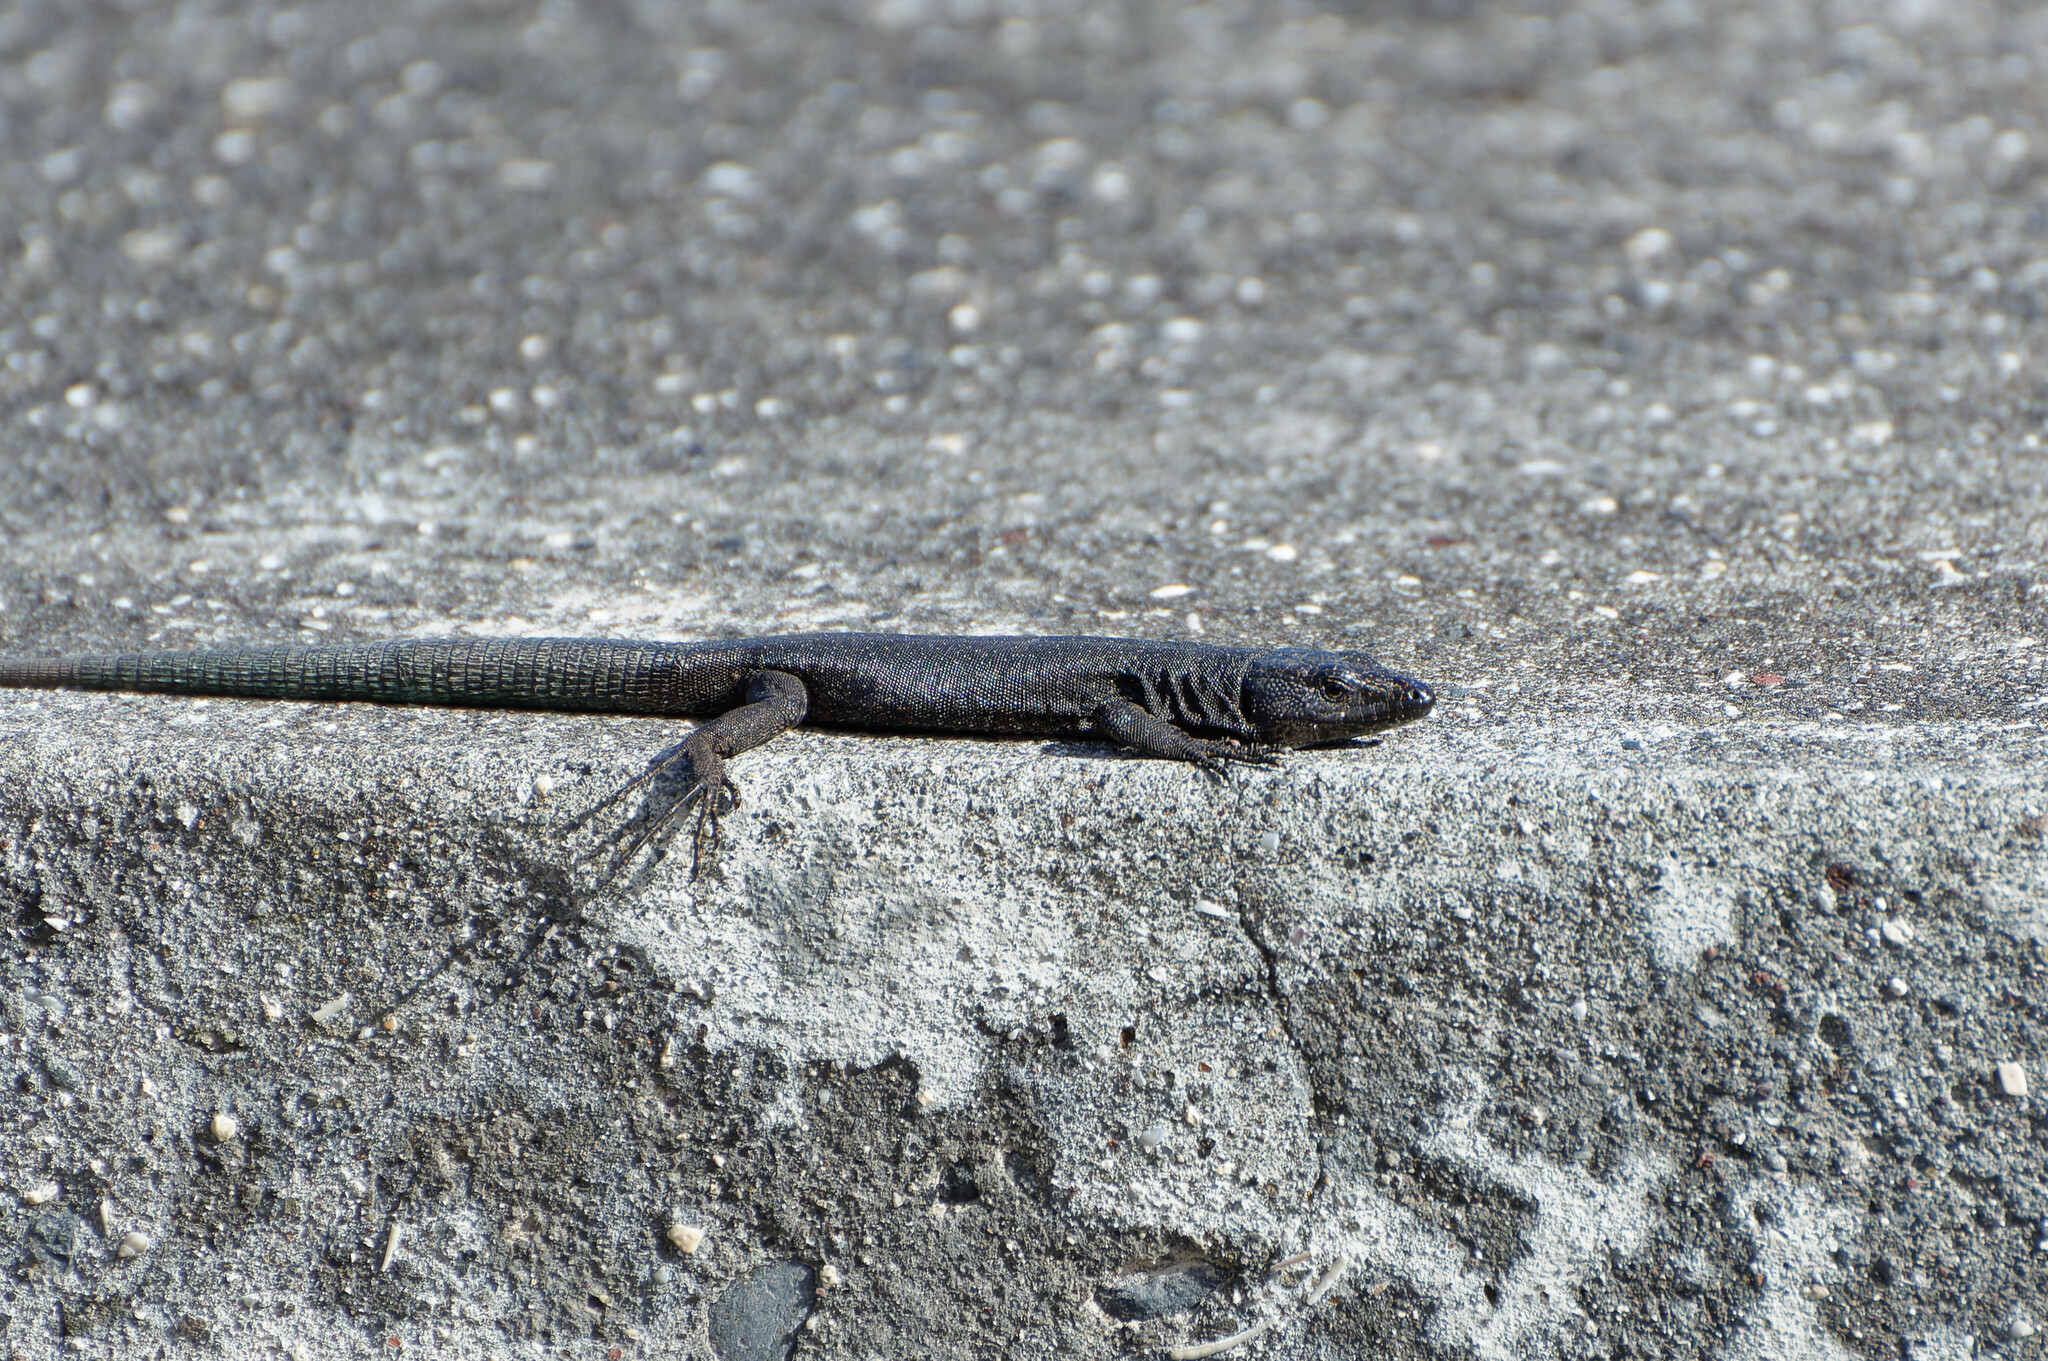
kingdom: Animalia
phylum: Chordata
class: Squamata
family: Lacertidae
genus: Teira
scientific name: Teira dugesii
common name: Madeira lizard
